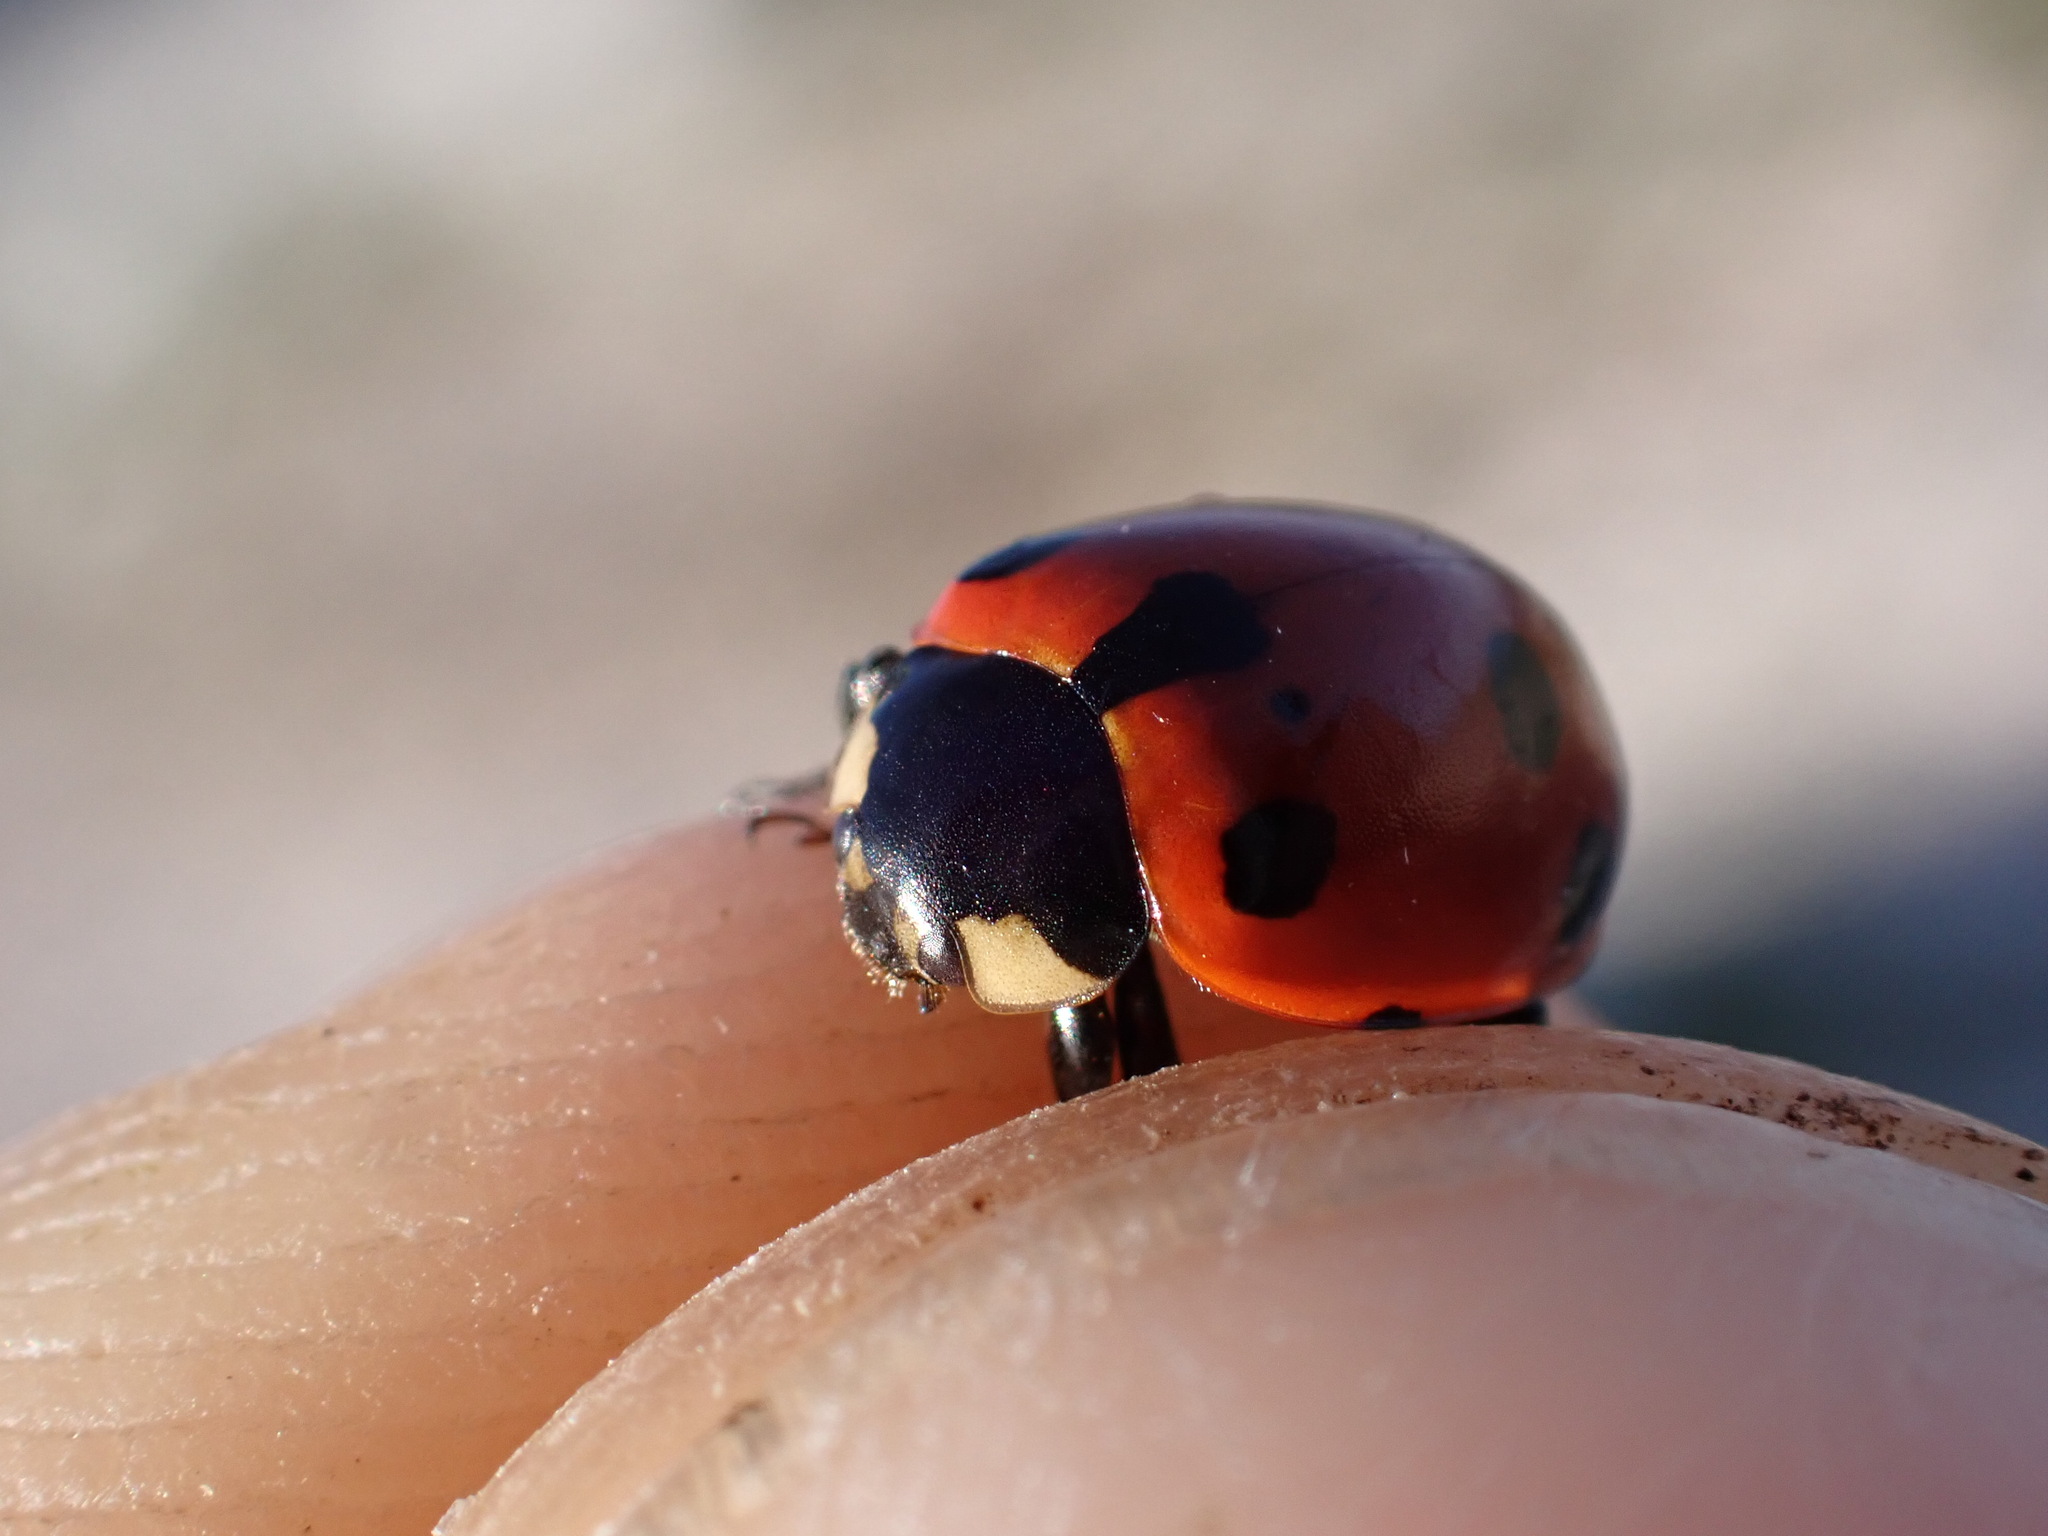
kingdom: Animalia
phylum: Arthropoda
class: Insecta
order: Coleoptera
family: Coccinellidae
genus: Ceratomegilla
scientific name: Ceratomegilla undecimnotata
